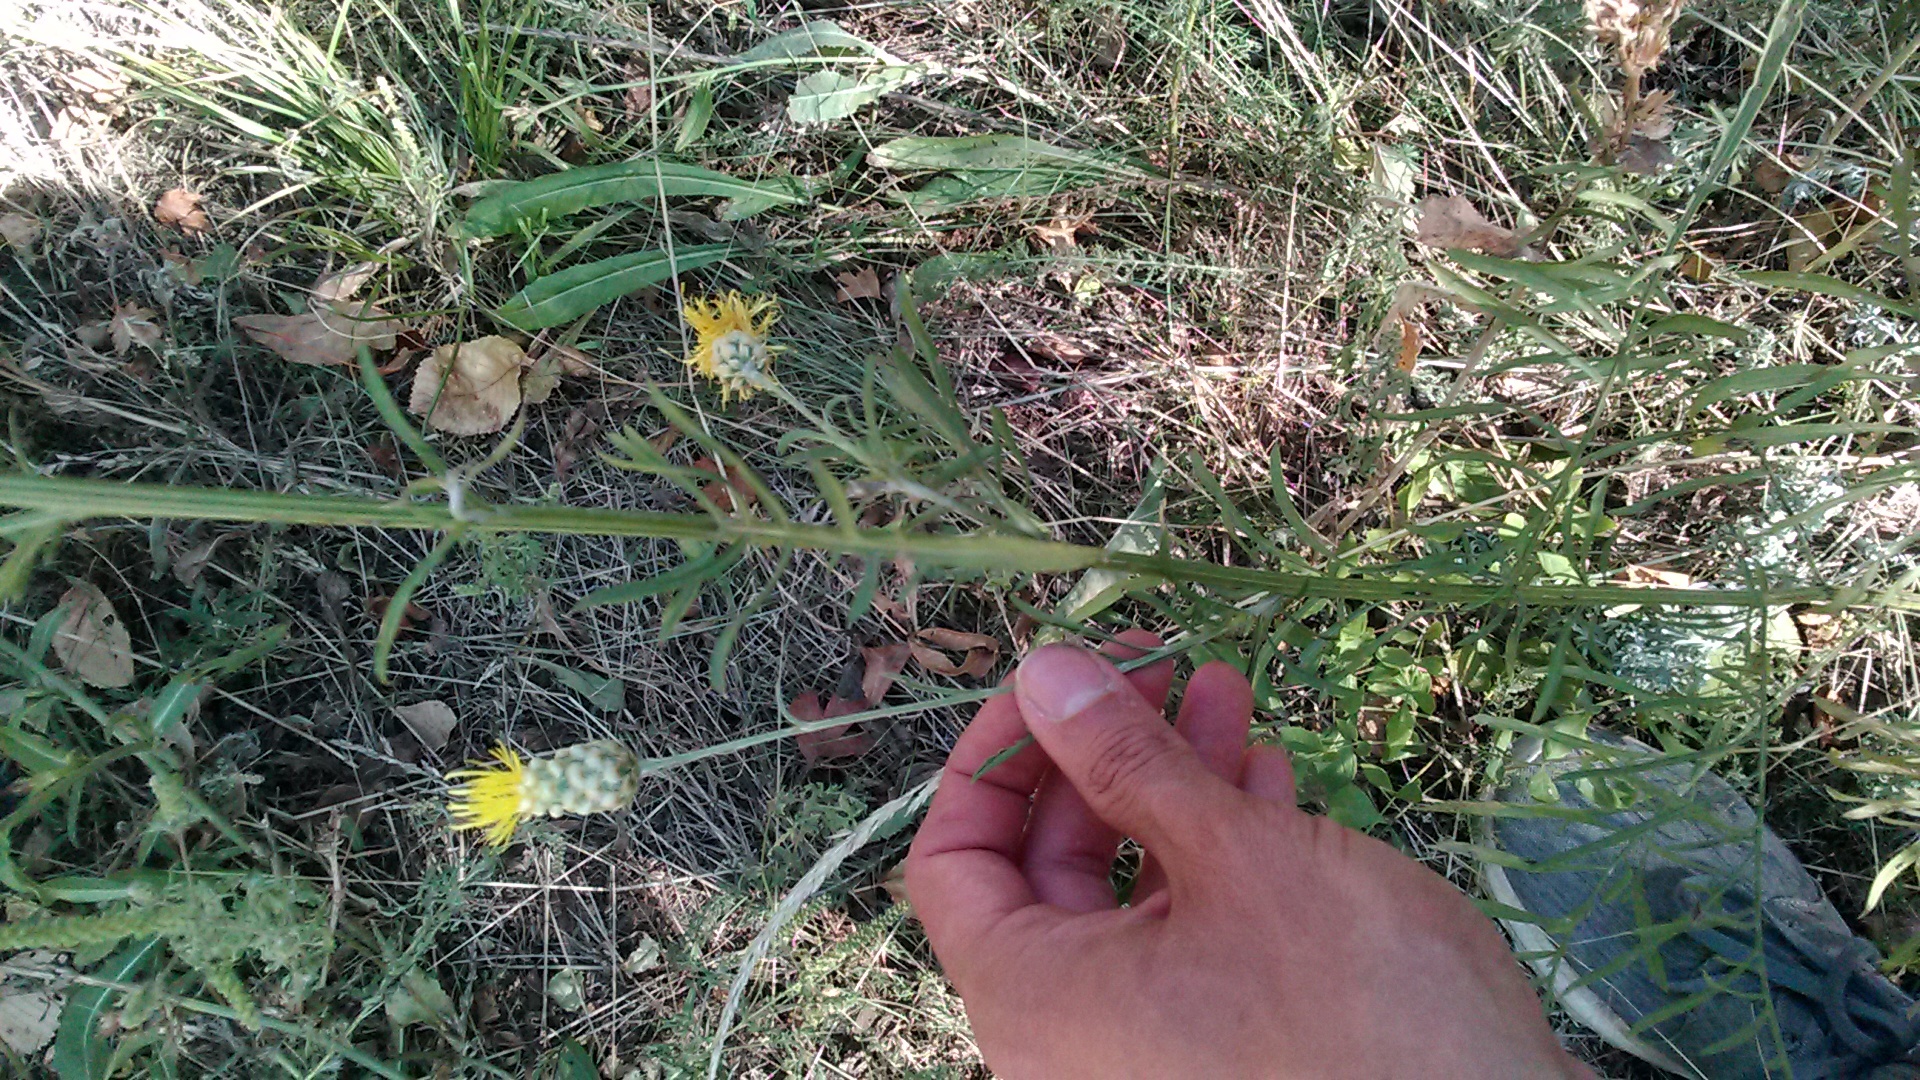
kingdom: Plantae
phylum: Tracheophyta
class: Magnoliopsida
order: Asterales
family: Asteraceae
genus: Centaurea
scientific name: Centaurea orientalis
